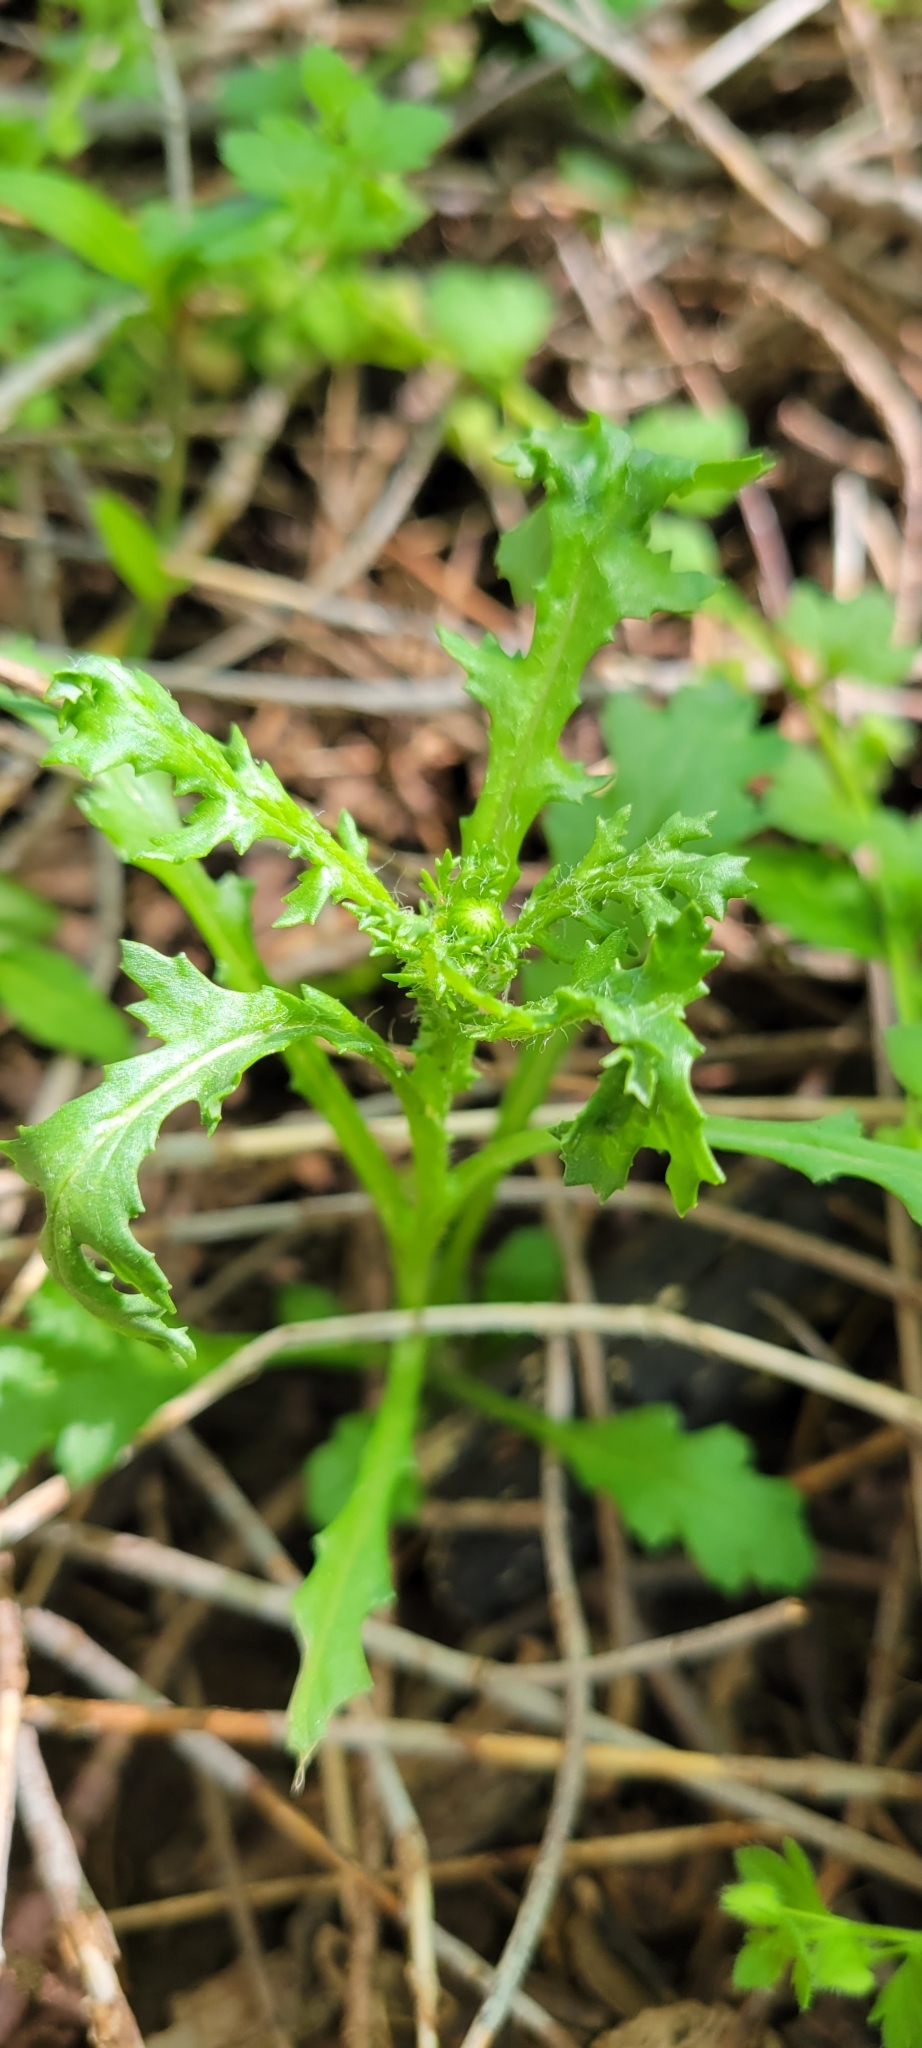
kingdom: Plantae
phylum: Tracheophyta
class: Magnoliopsida
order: Asterales
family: Asteraceae
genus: Senecio
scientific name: Senecio vulgaris
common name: Old-man-in-the-spring
